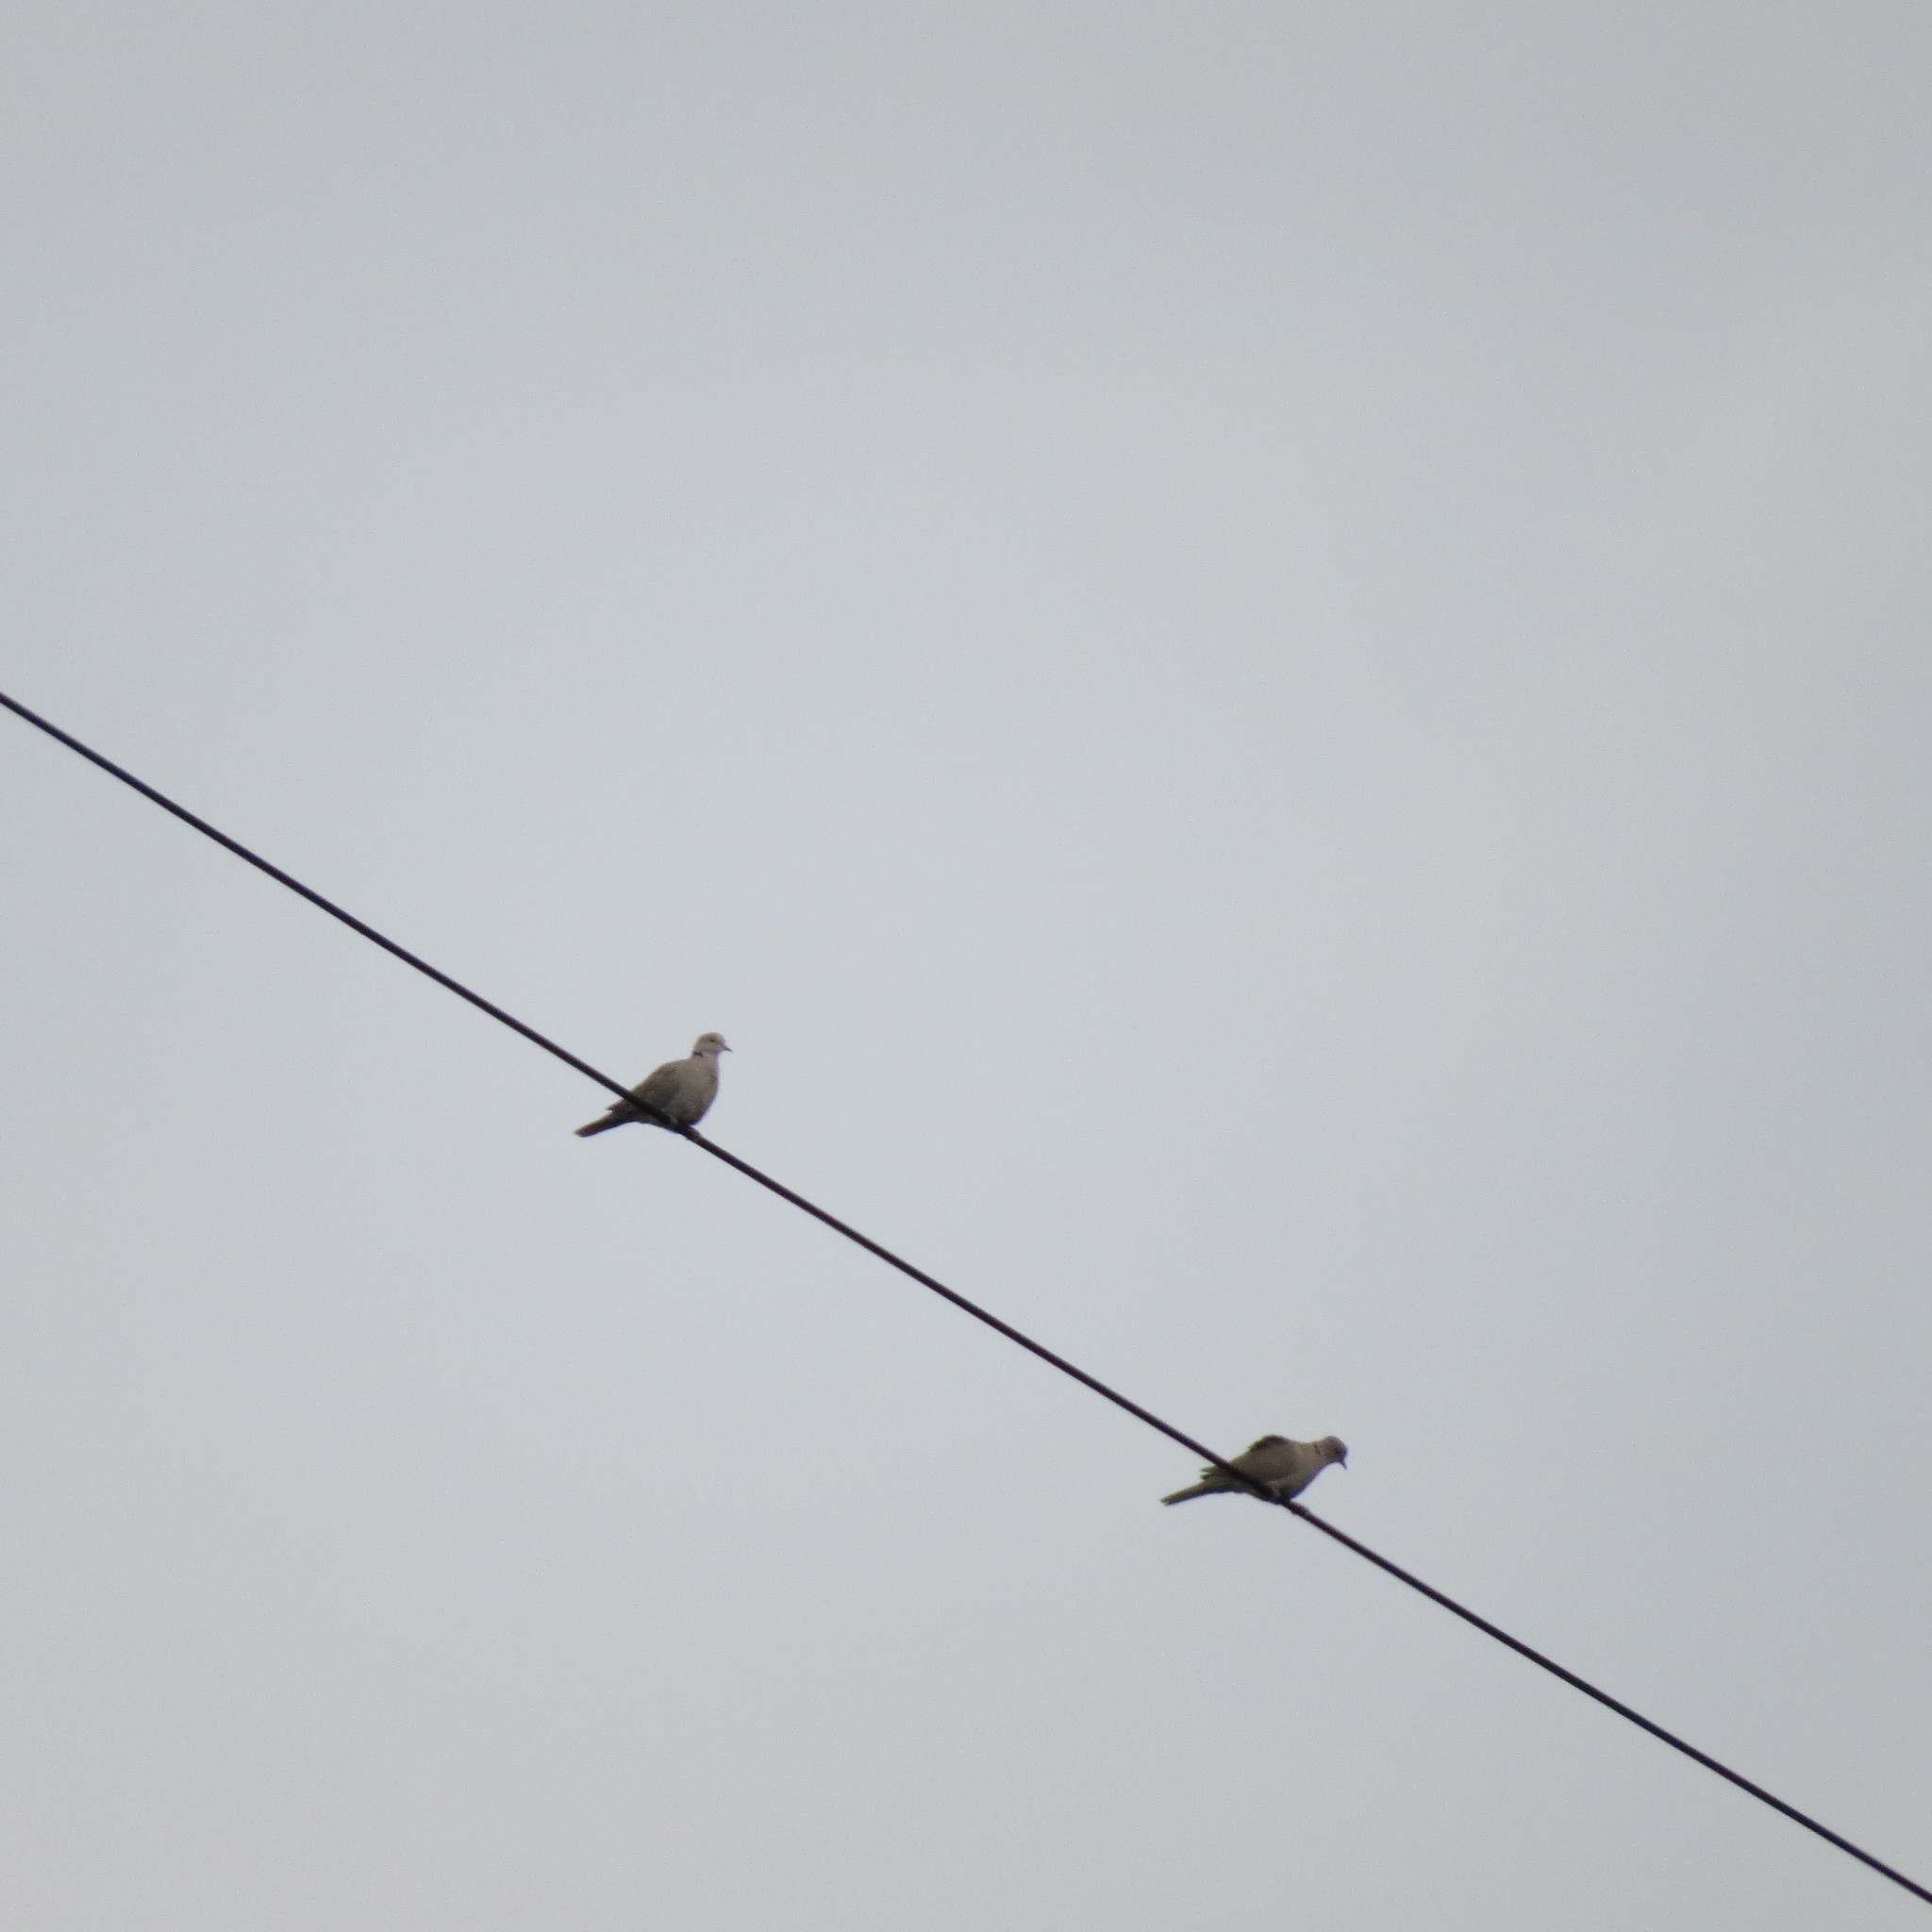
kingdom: Animalia
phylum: Chordata
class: Aves
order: Columbiformes
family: Columbidae
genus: Streptopelia
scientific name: Streptopelia decaocto
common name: Eurasian collared dove
